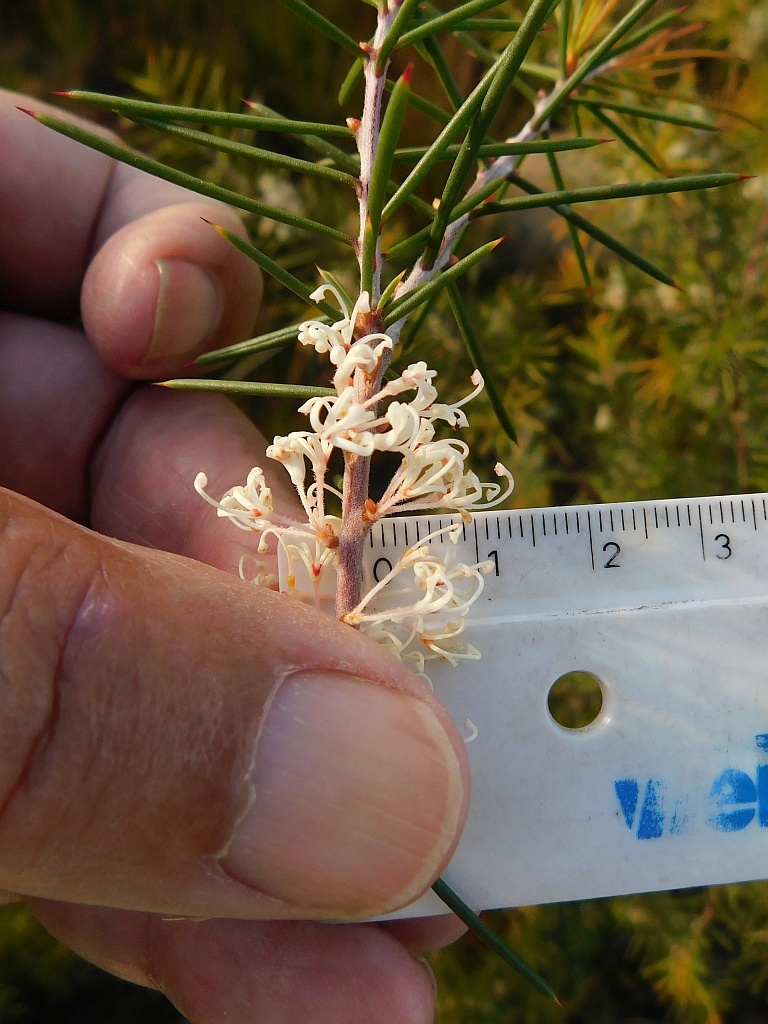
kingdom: Plantae
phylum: Tracheophyta
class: Magnoliopsida
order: Proteales
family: Proteaceae
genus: Hakea
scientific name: Hakea sericea
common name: Needle bush
